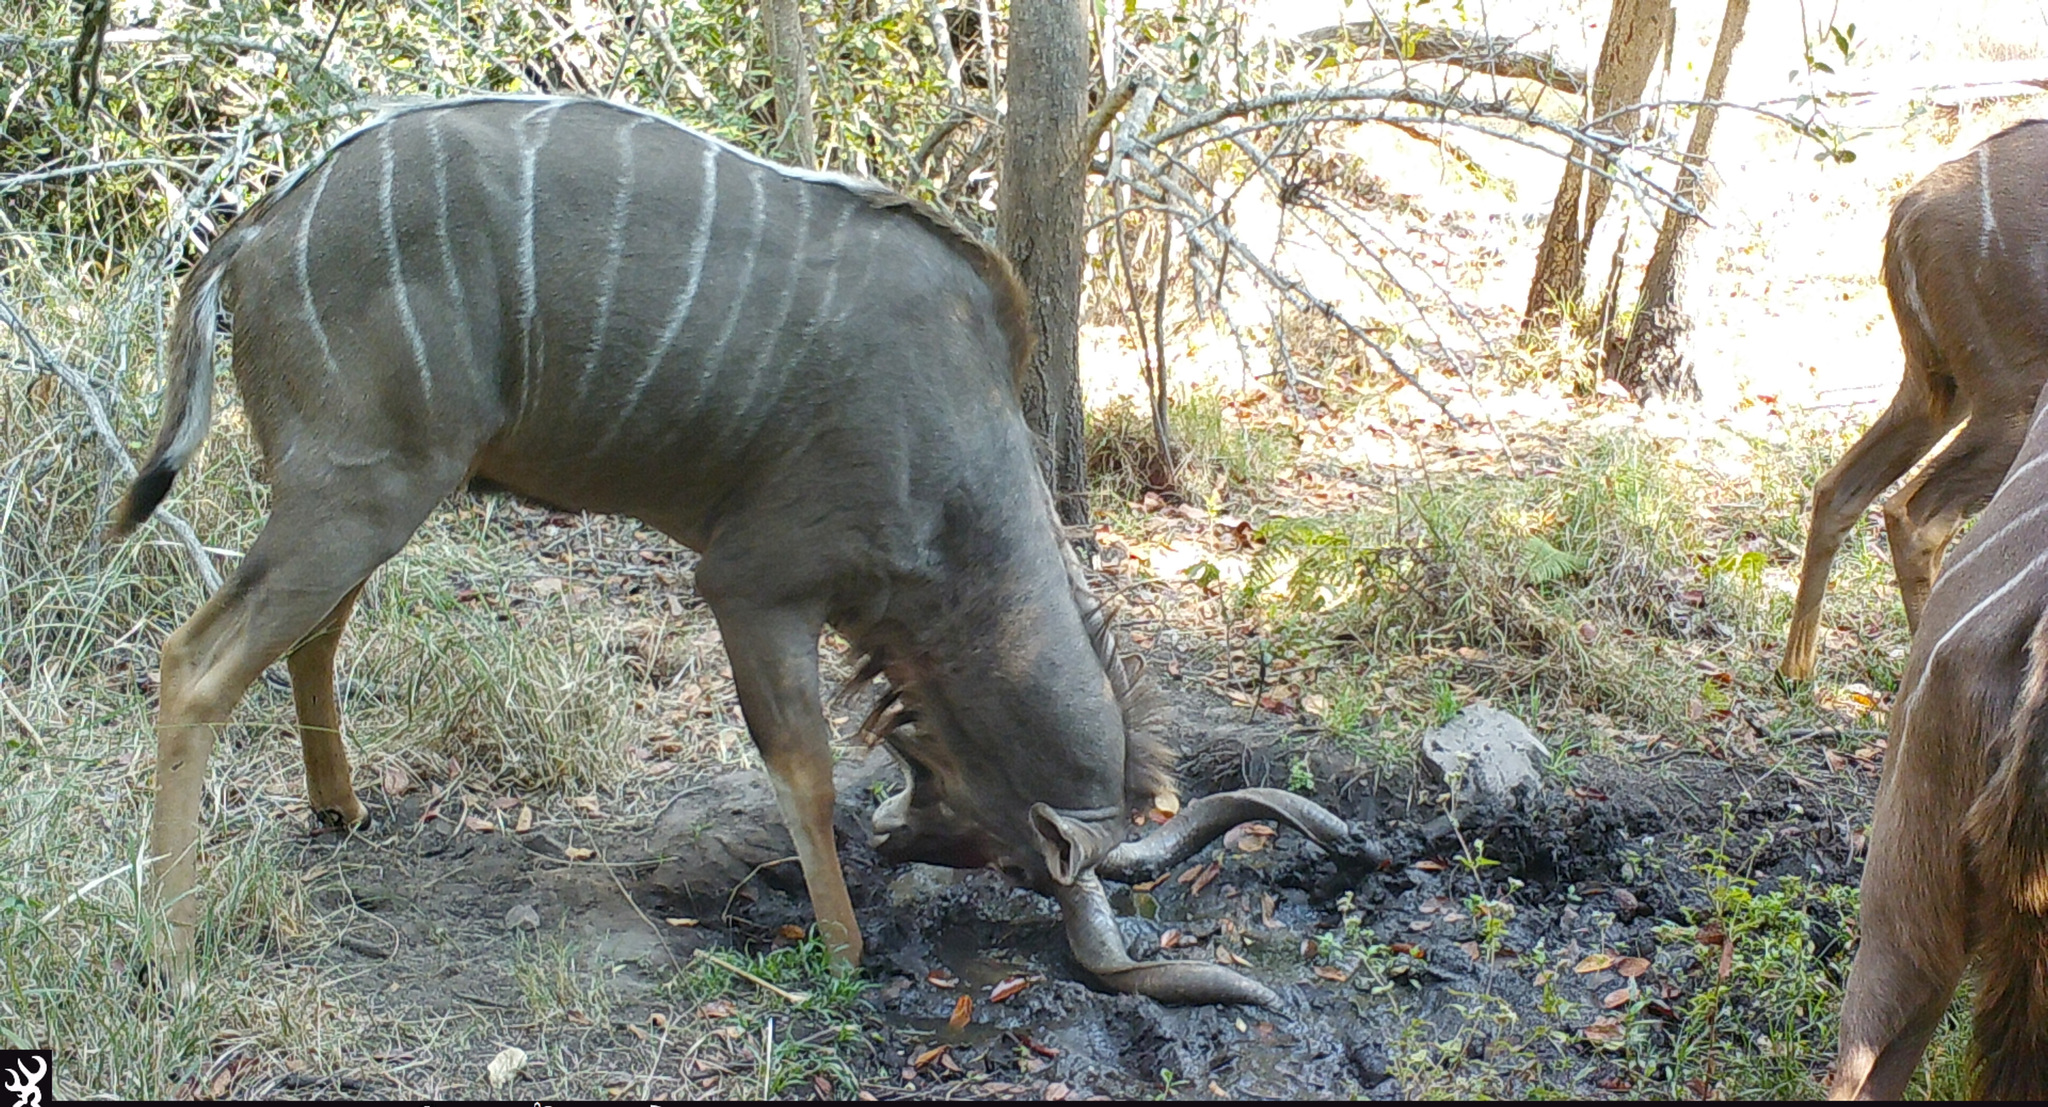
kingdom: Animalia
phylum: Chordata
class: Mammalia
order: Artiodactyla
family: Bovidae
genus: Tragelaphus
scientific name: Tragelaphus strepsiceros
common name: Greater kudu
